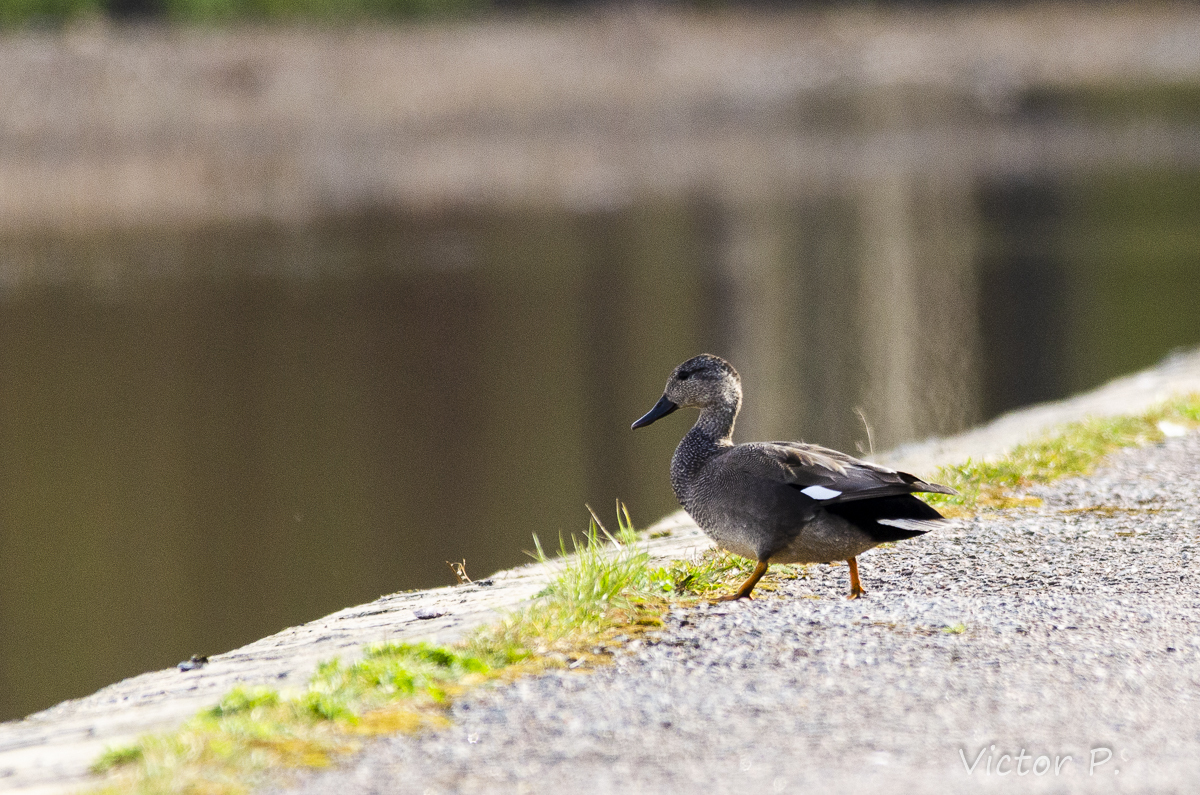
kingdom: Animalia
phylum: Chordata
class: Aves
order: Anseriformes
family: Anatidae
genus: Mareca
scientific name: Mareca strepera
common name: Gadwall
